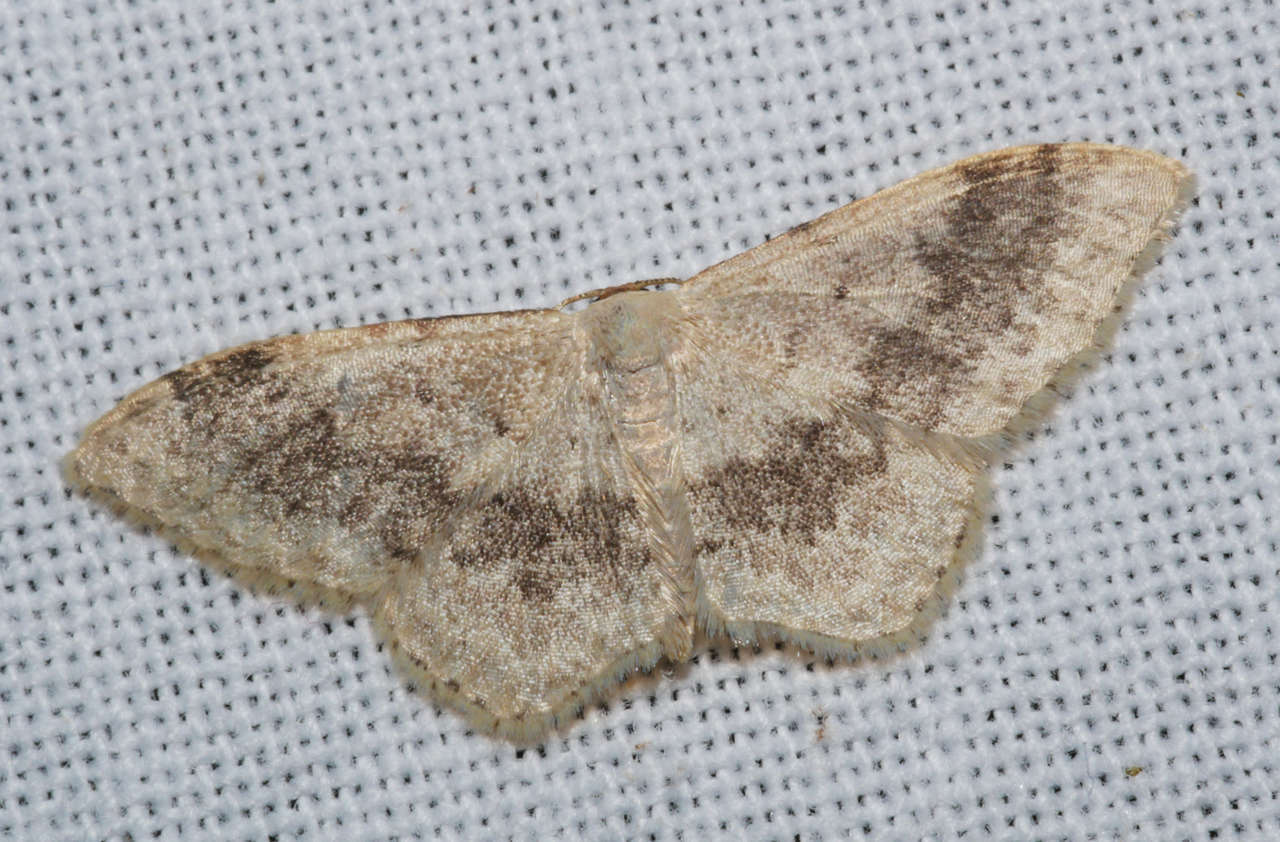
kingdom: Animalia
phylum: Arthropoda
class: Insecta
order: Lepidoptera
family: Geometridae
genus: Idaea
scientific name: Idaea halmaea
